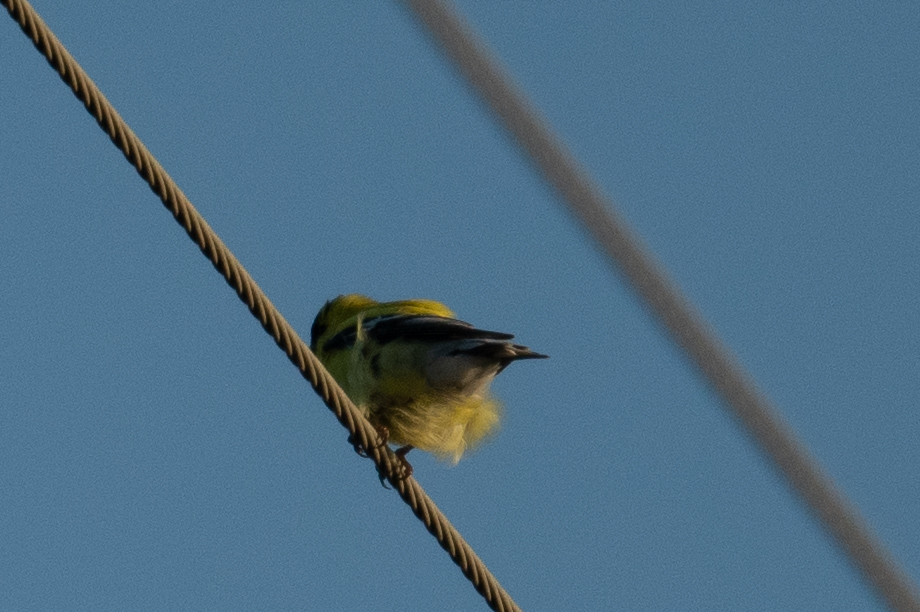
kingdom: Animalia
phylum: Chordata
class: Aves
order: Passeriformes
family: Fringillidae
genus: Spinus
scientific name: Spinus tristis
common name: American goldfinch
